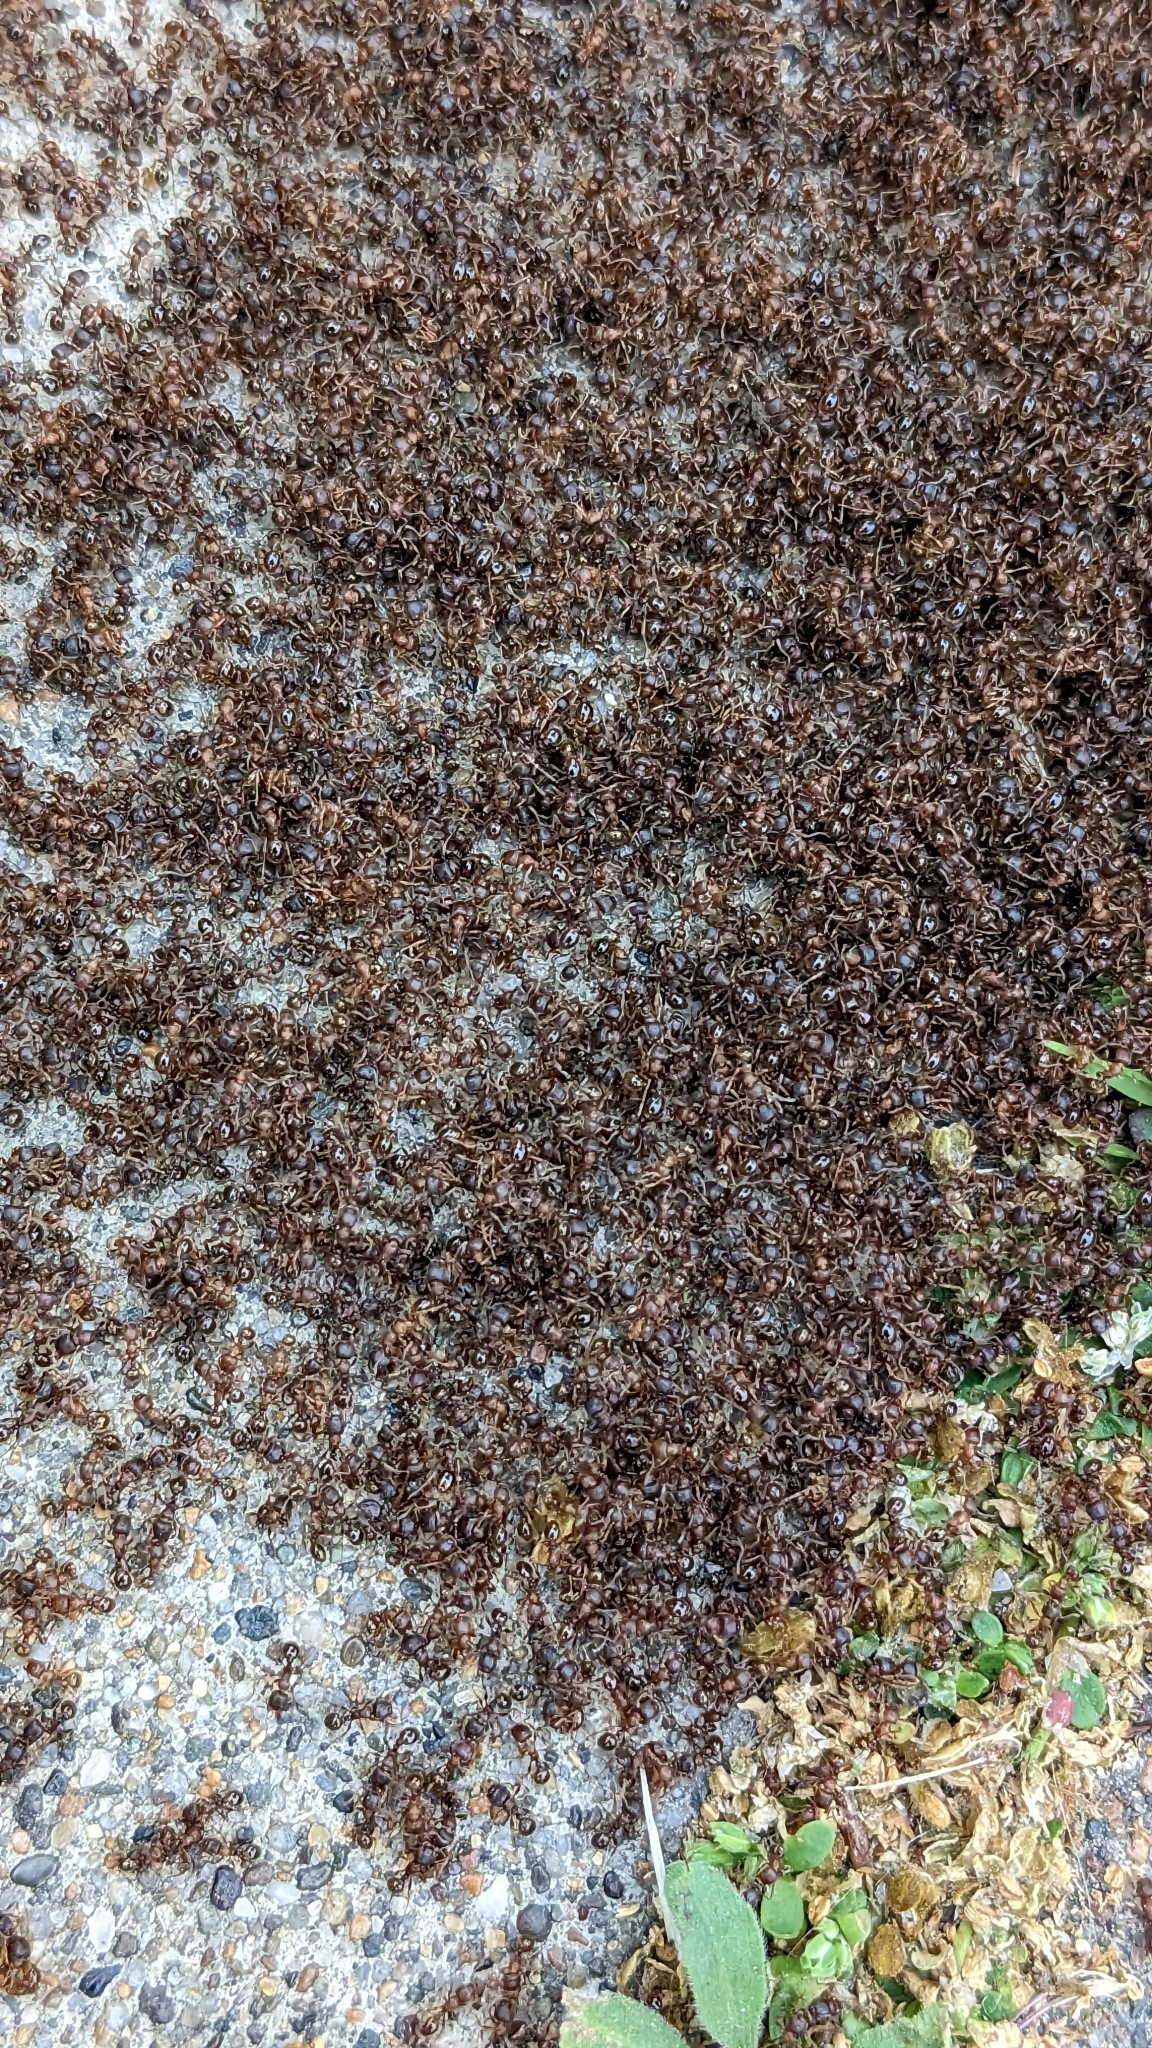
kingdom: Animalia
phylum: Arthropoda
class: Insecta
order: Hymenoptera
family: Formicidae
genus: Tetramorium
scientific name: Tetramorium immigrans
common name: Pavement ant
